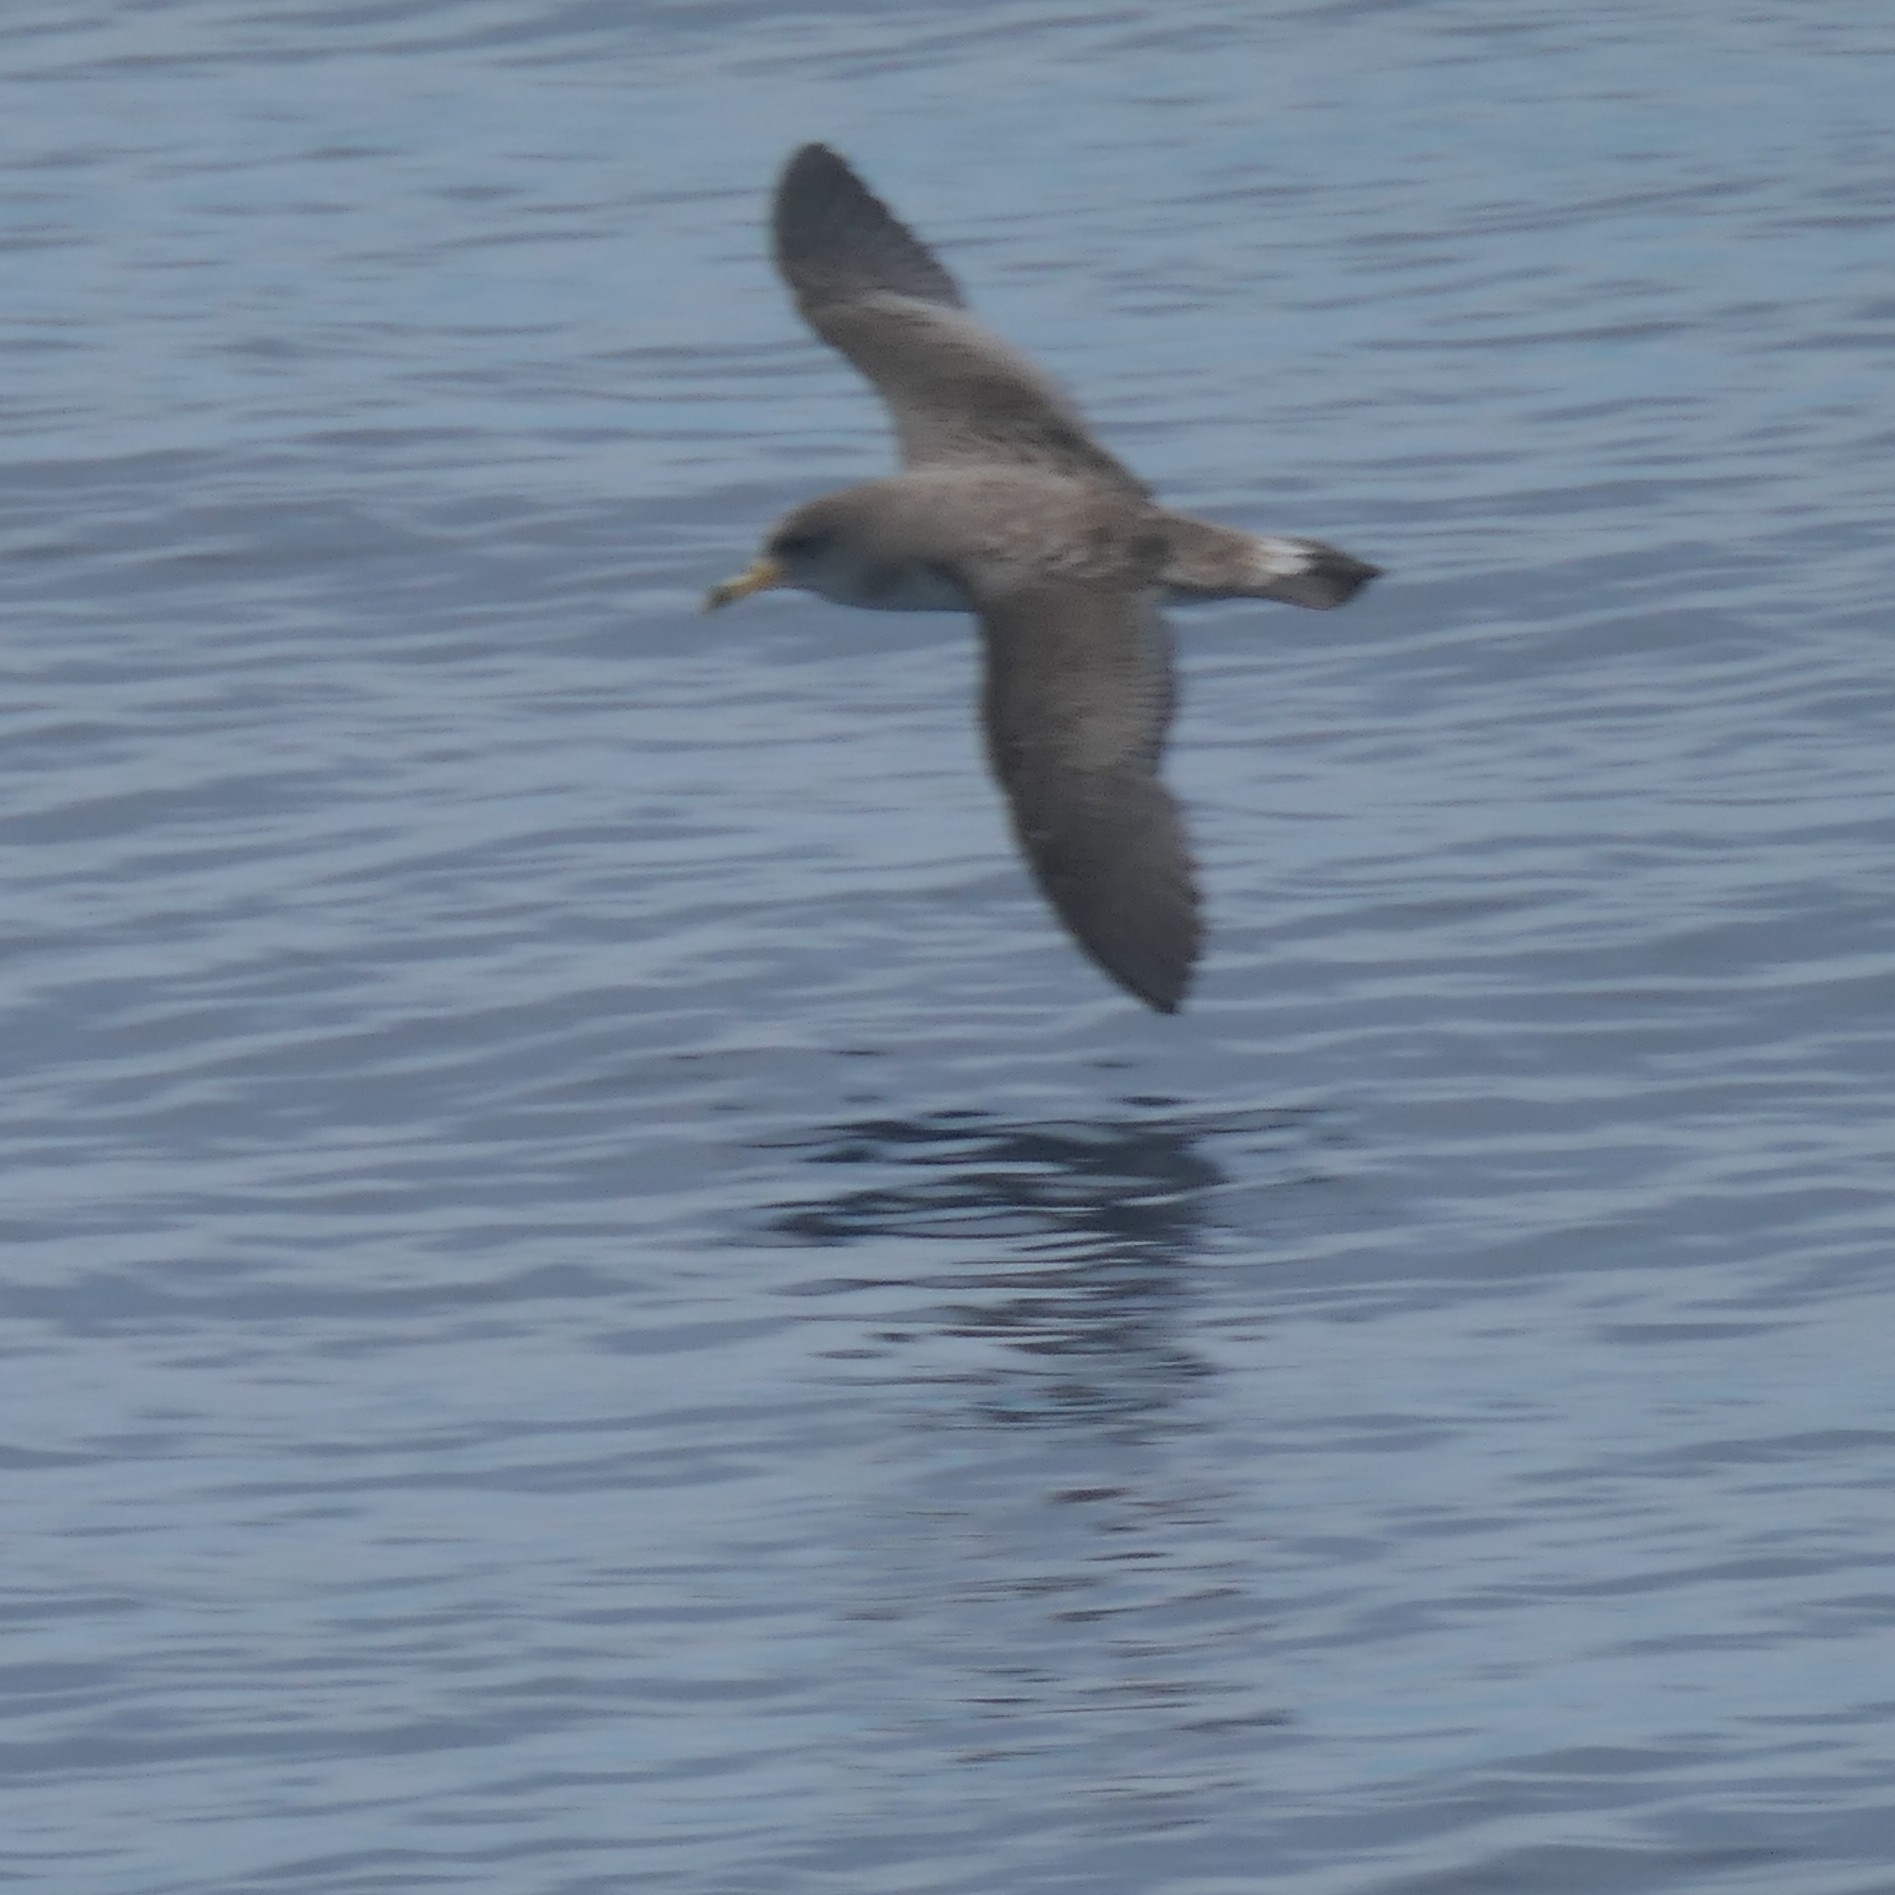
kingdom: Animalia
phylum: Chordata
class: Aves
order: Procellariiformes
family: Procellariidae
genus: Calonectris
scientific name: Calonectris diomedea
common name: Cory's shearwater
